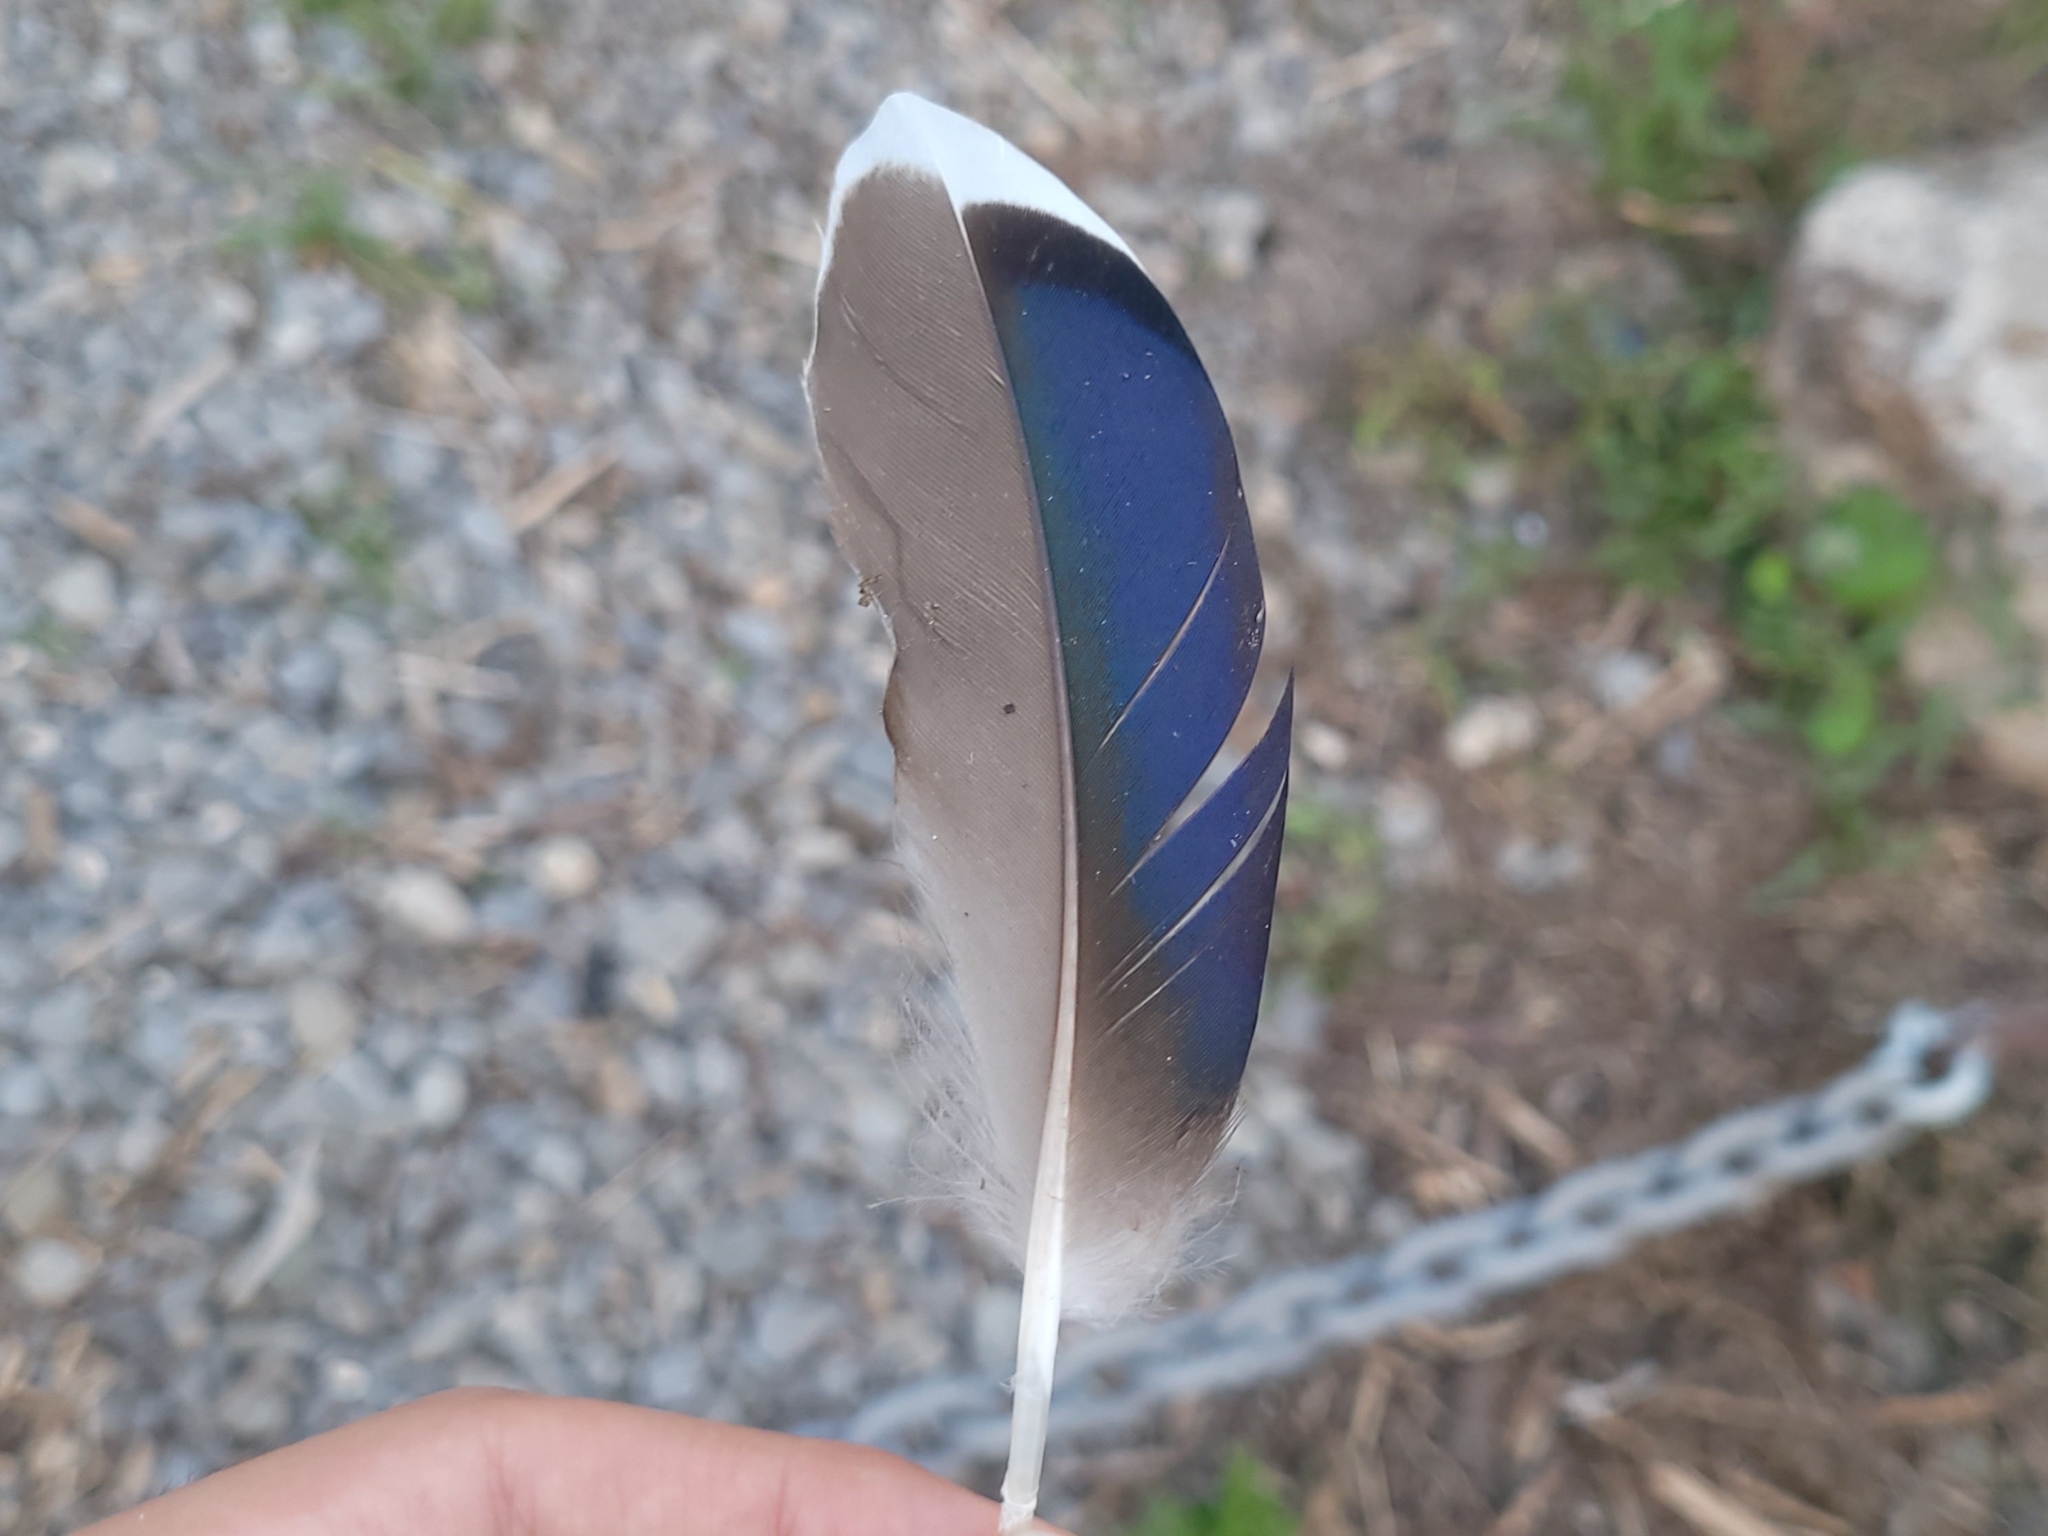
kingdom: Animalia
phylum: Chordata
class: Aves
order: Anseriformes
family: Anatidae
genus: Anas
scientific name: Anas platyrhynchos
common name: Mallard
